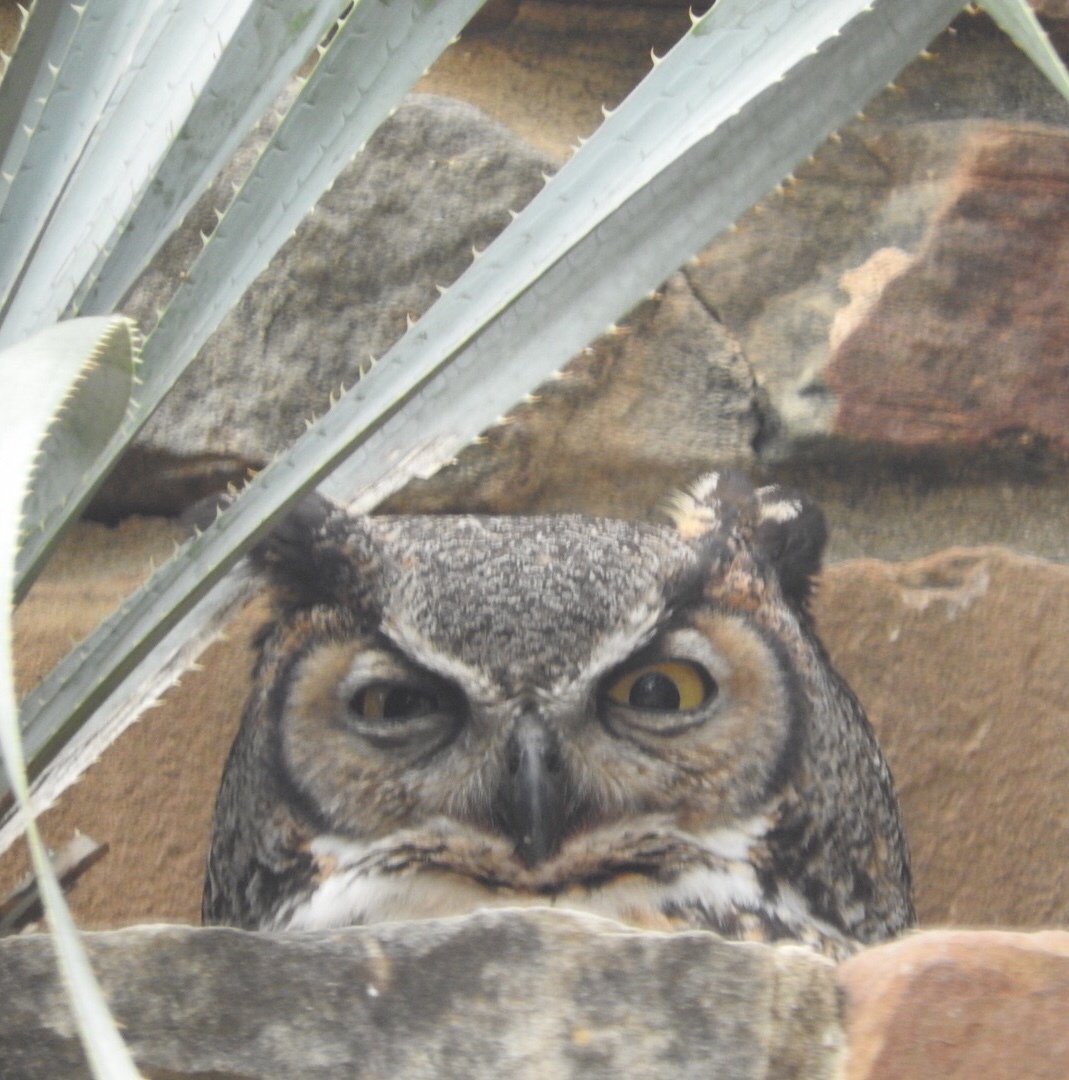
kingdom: Animalia
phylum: Chordata
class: Aves
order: Strigiformes
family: Strigidae
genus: Bubo
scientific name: Bubo virginianus
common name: Great horned owl
